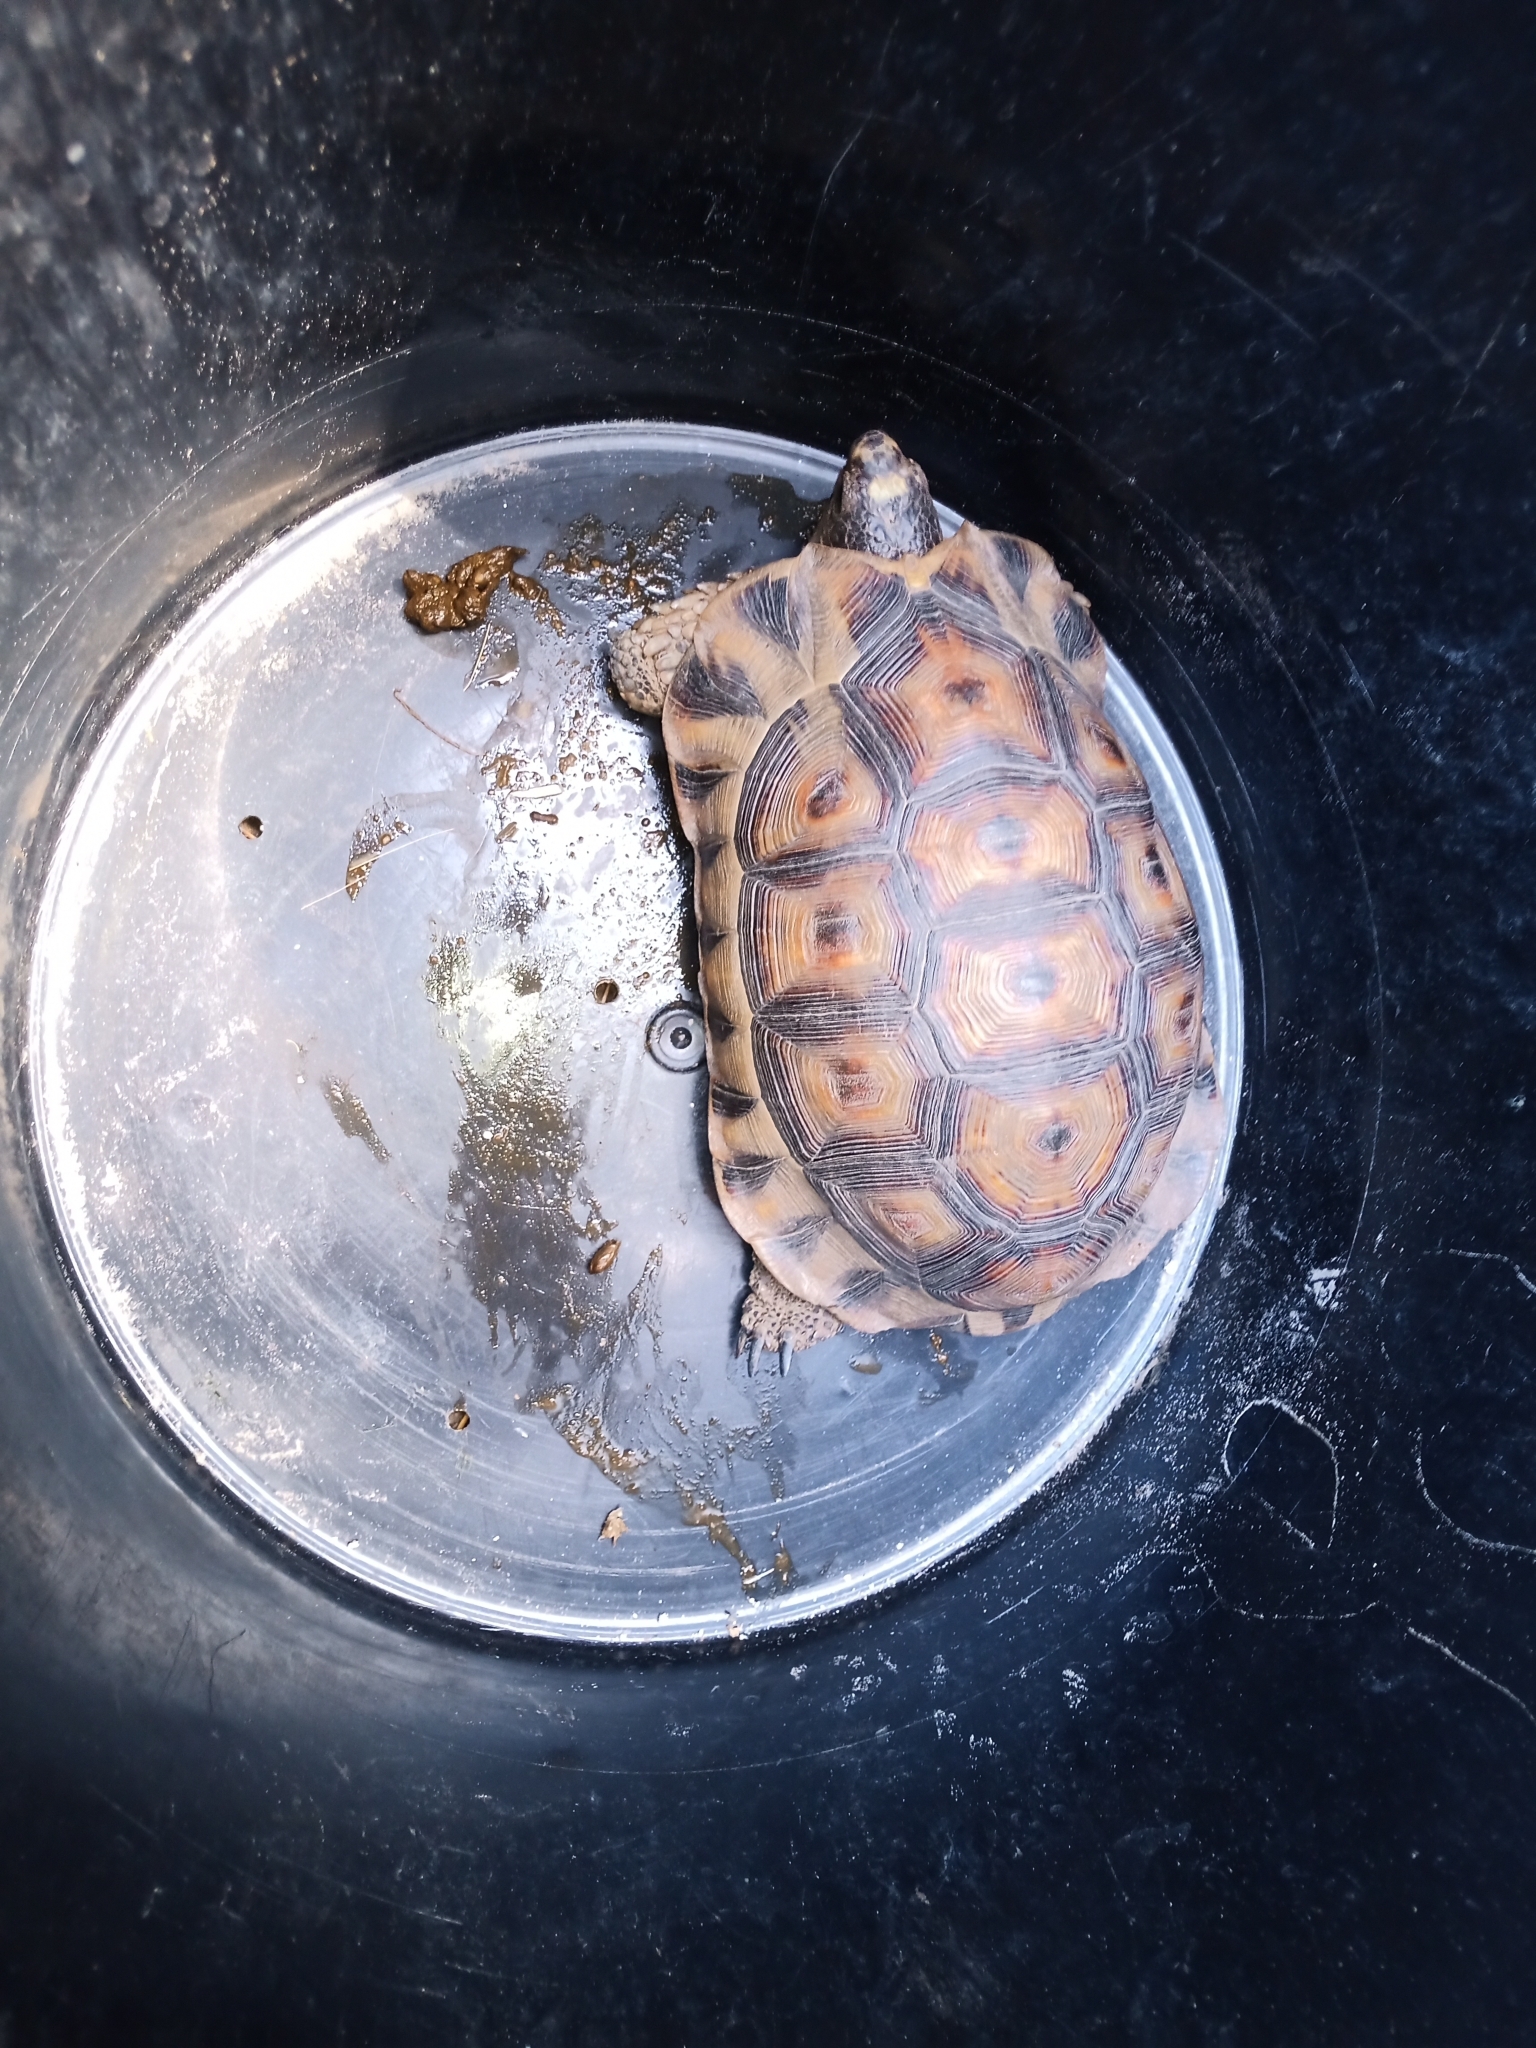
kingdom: Animalia
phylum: Chordata
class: Testudines
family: Testudinidae
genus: Chersina
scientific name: Chersina angulata
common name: South african bowsprit tortoise
